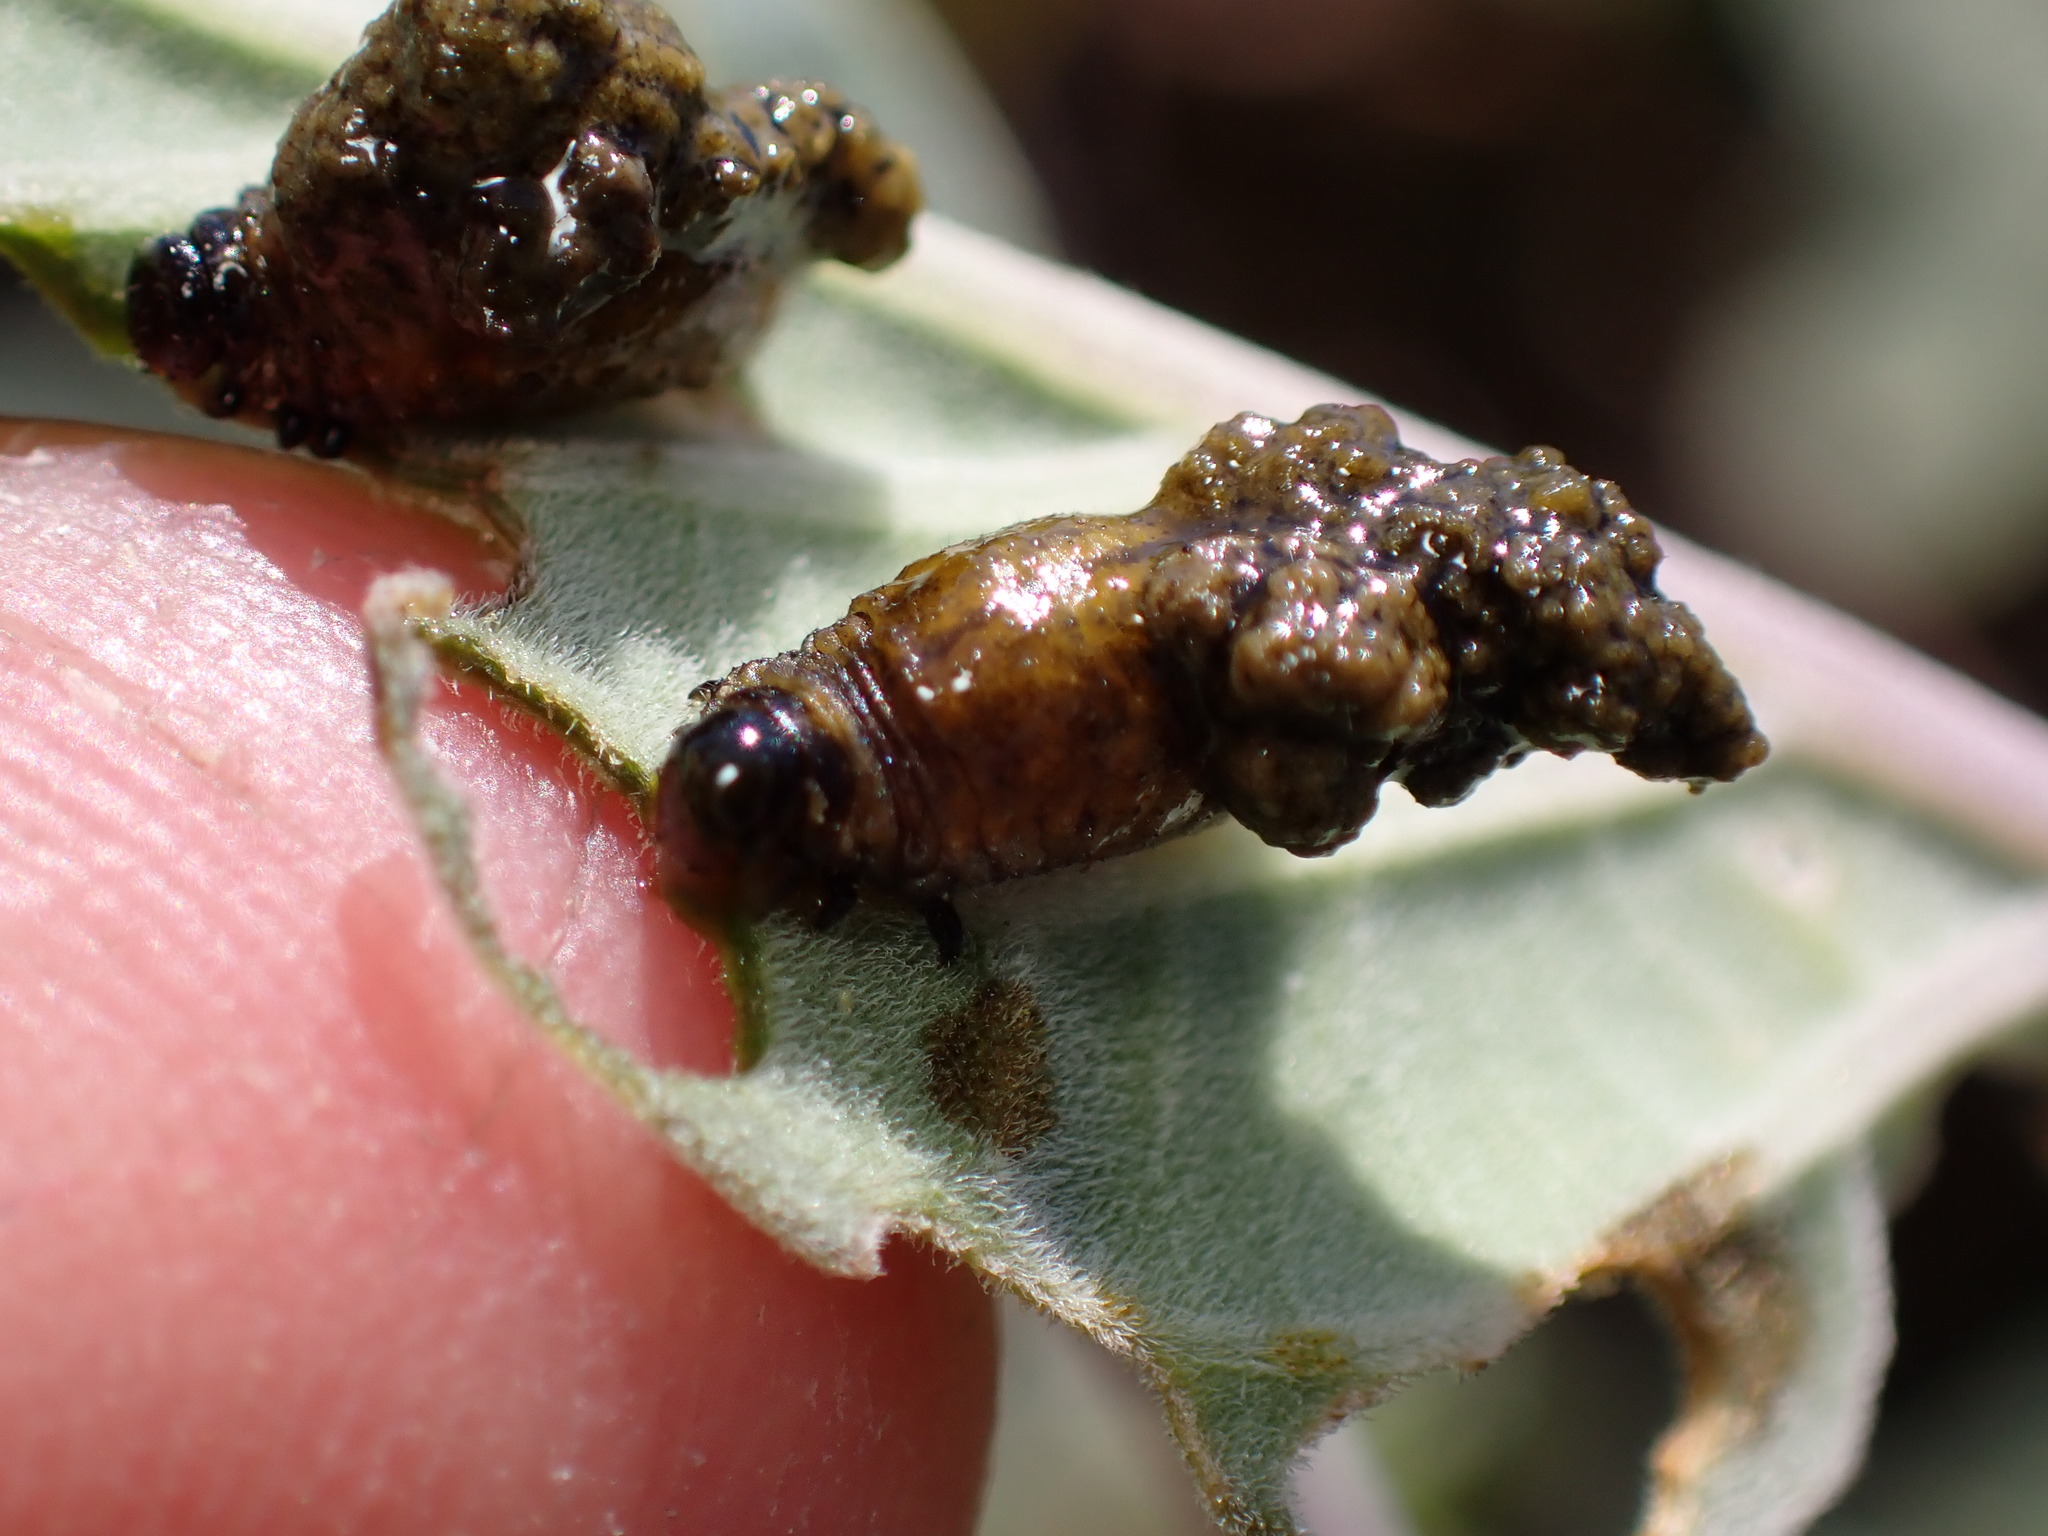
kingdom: Animalia
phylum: Arthropoda
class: Insecta
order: Coleoptera
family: Chrysomelidae
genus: Lema
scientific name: Lema daturaphila
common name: Leaf beetle
